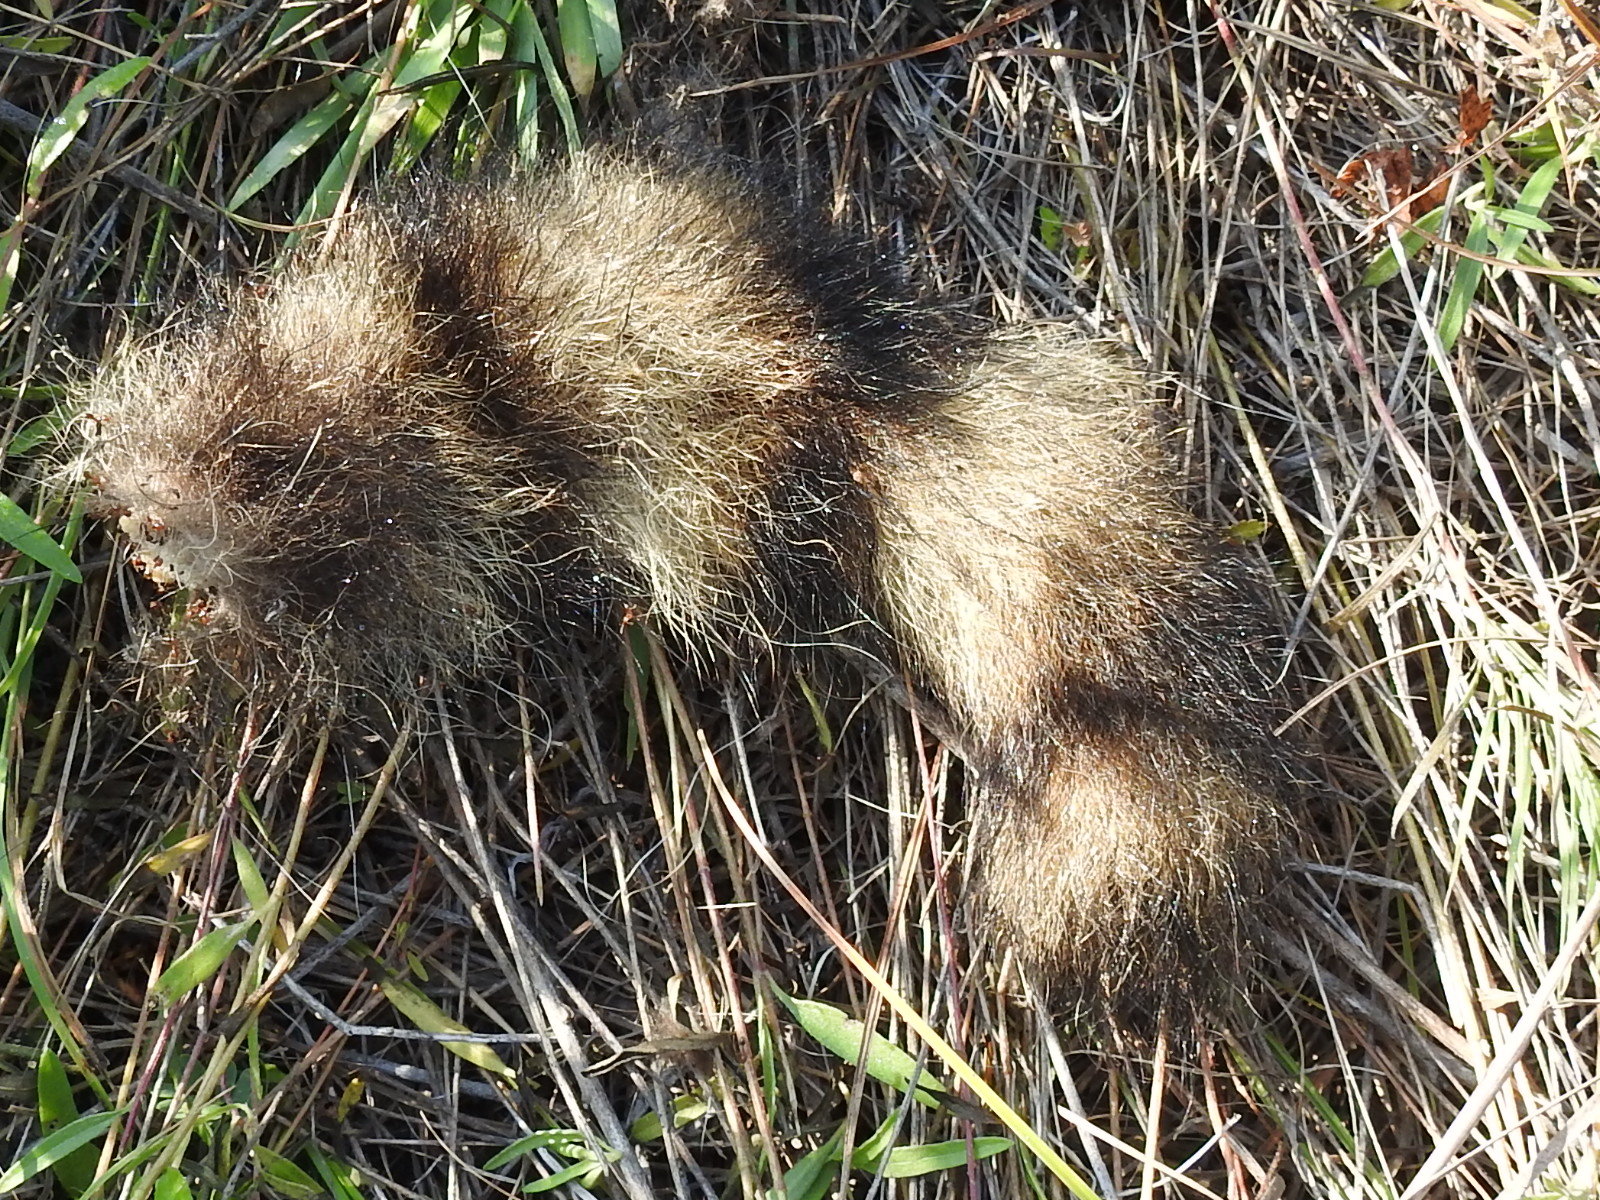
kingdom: Animalia
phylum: Chordata
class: Mammalia
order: Carnivora
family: Procyonidae
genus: Procyon
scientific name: Procyon lotor
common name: Raccoon
